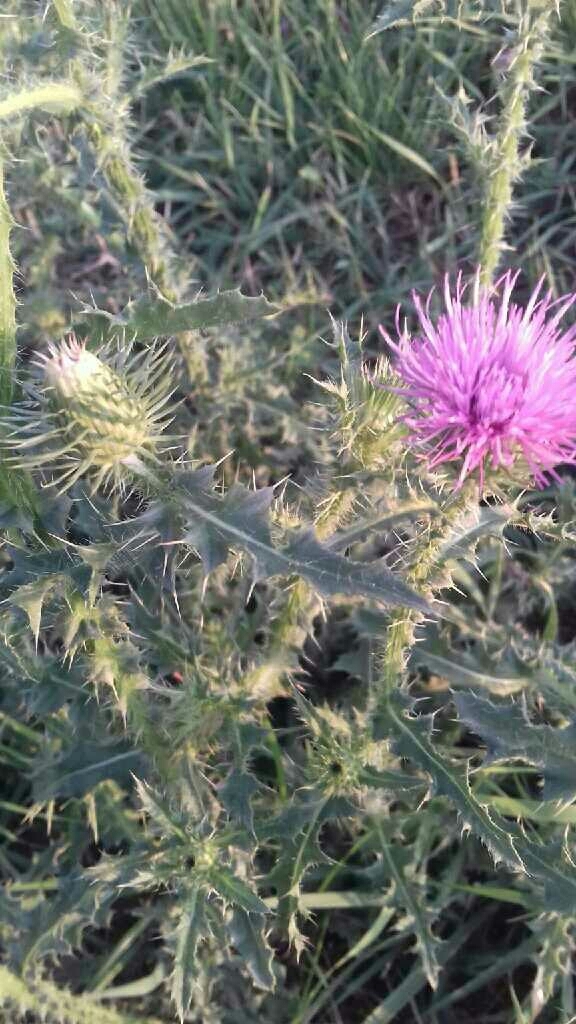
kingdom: Plantae
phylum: Tracheophyta
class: Magnoliopsida
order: Asterales
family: Asteraceae
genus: Carduus
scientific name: Carduus acanthoides
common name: Plumeless thistle
